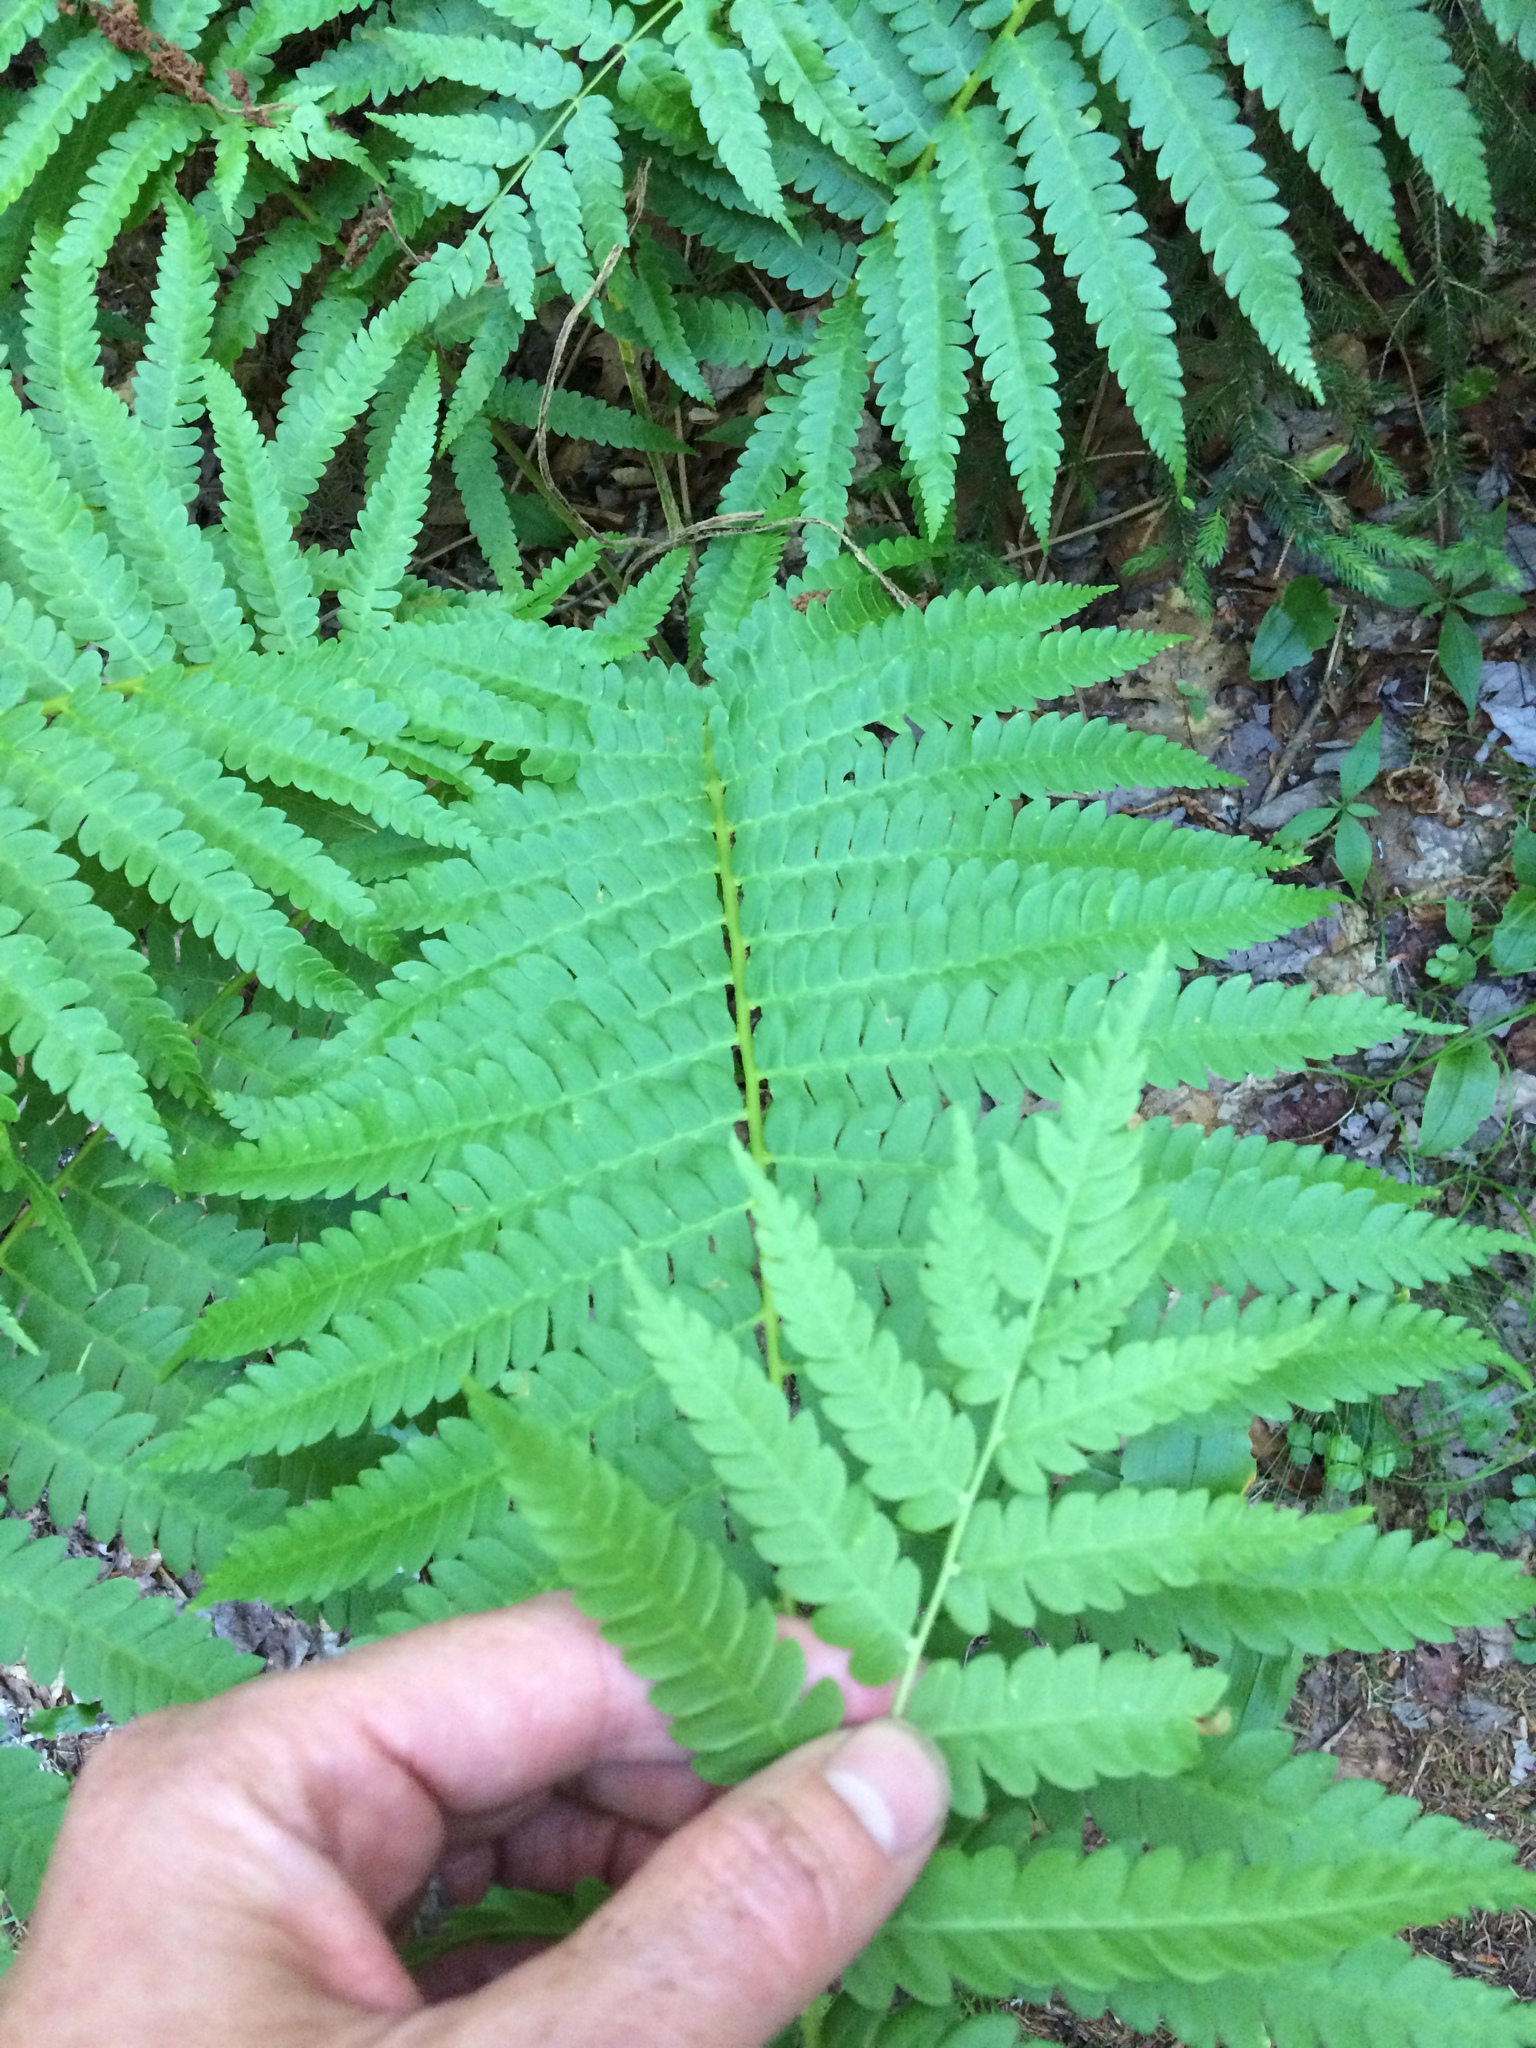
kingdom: Plantae
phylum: Tracheophyta
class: Polypodiopsida
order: Osmundales
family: Osmundaceae
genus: Osmundastrum
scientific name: Osmundastrum cinnamomeum
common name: Cinnamon fern
